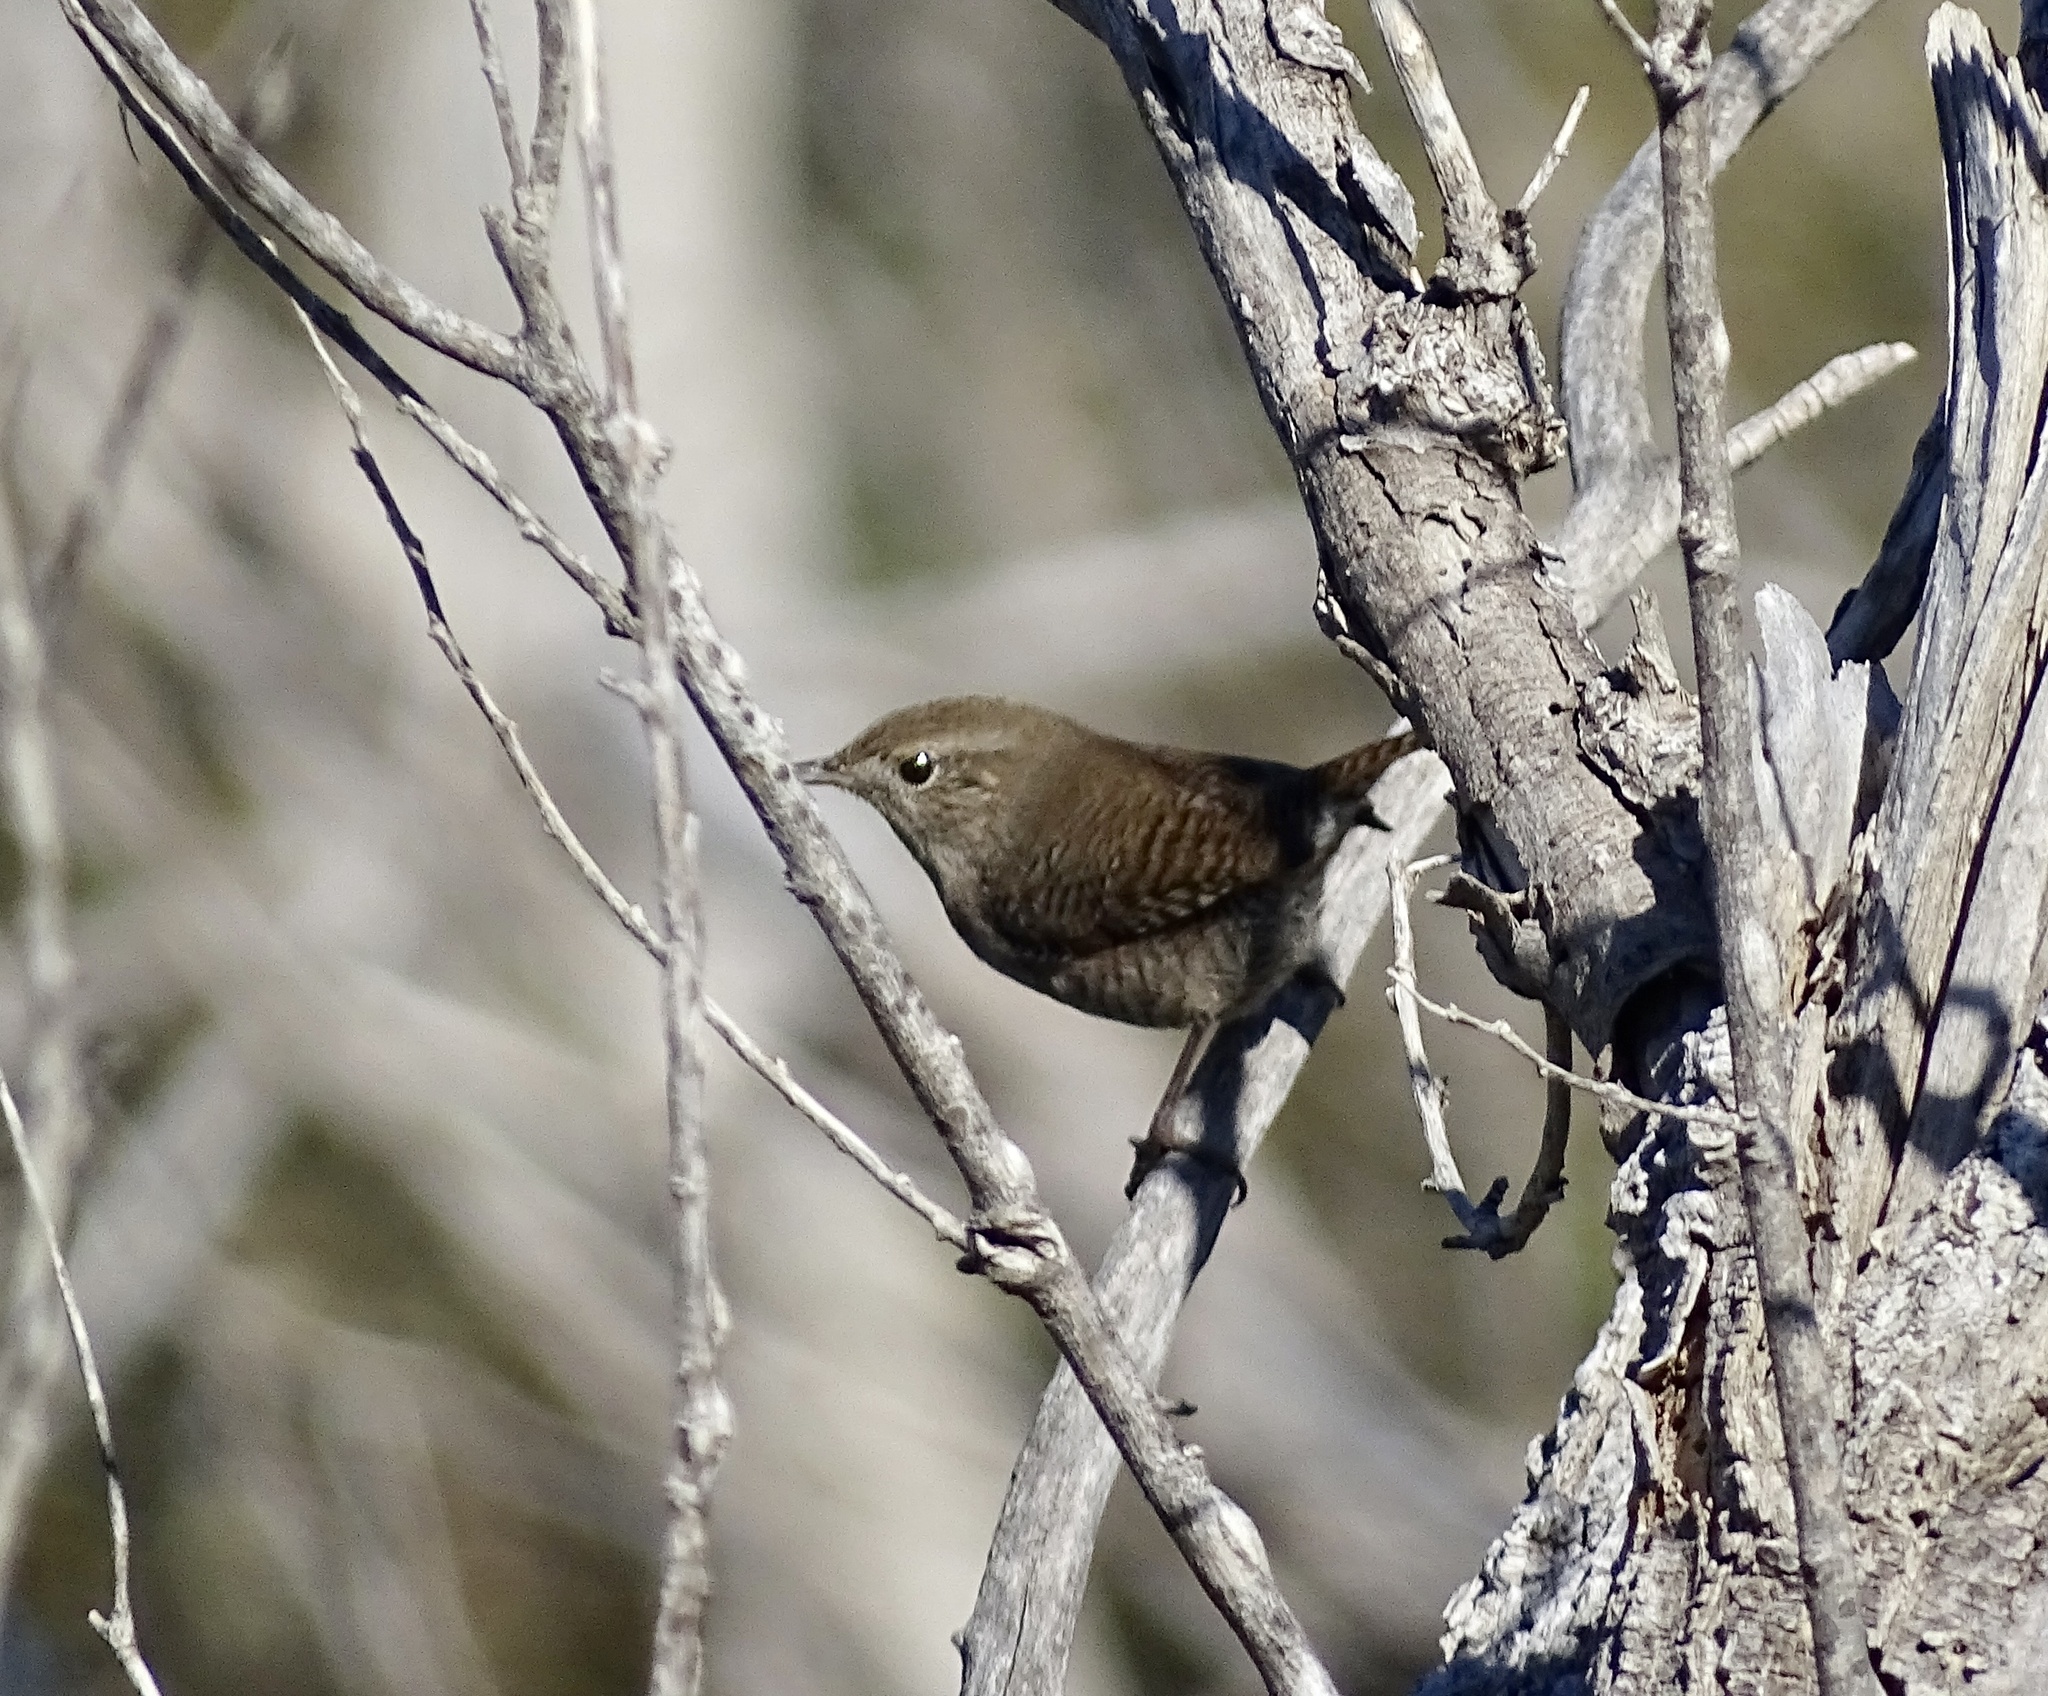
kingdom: Animalia
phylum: Chordata
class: Aves
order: Passeriformes
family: Troglodytidae
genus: Troglodytes
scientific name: Troglodytes aedon
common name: House wren
